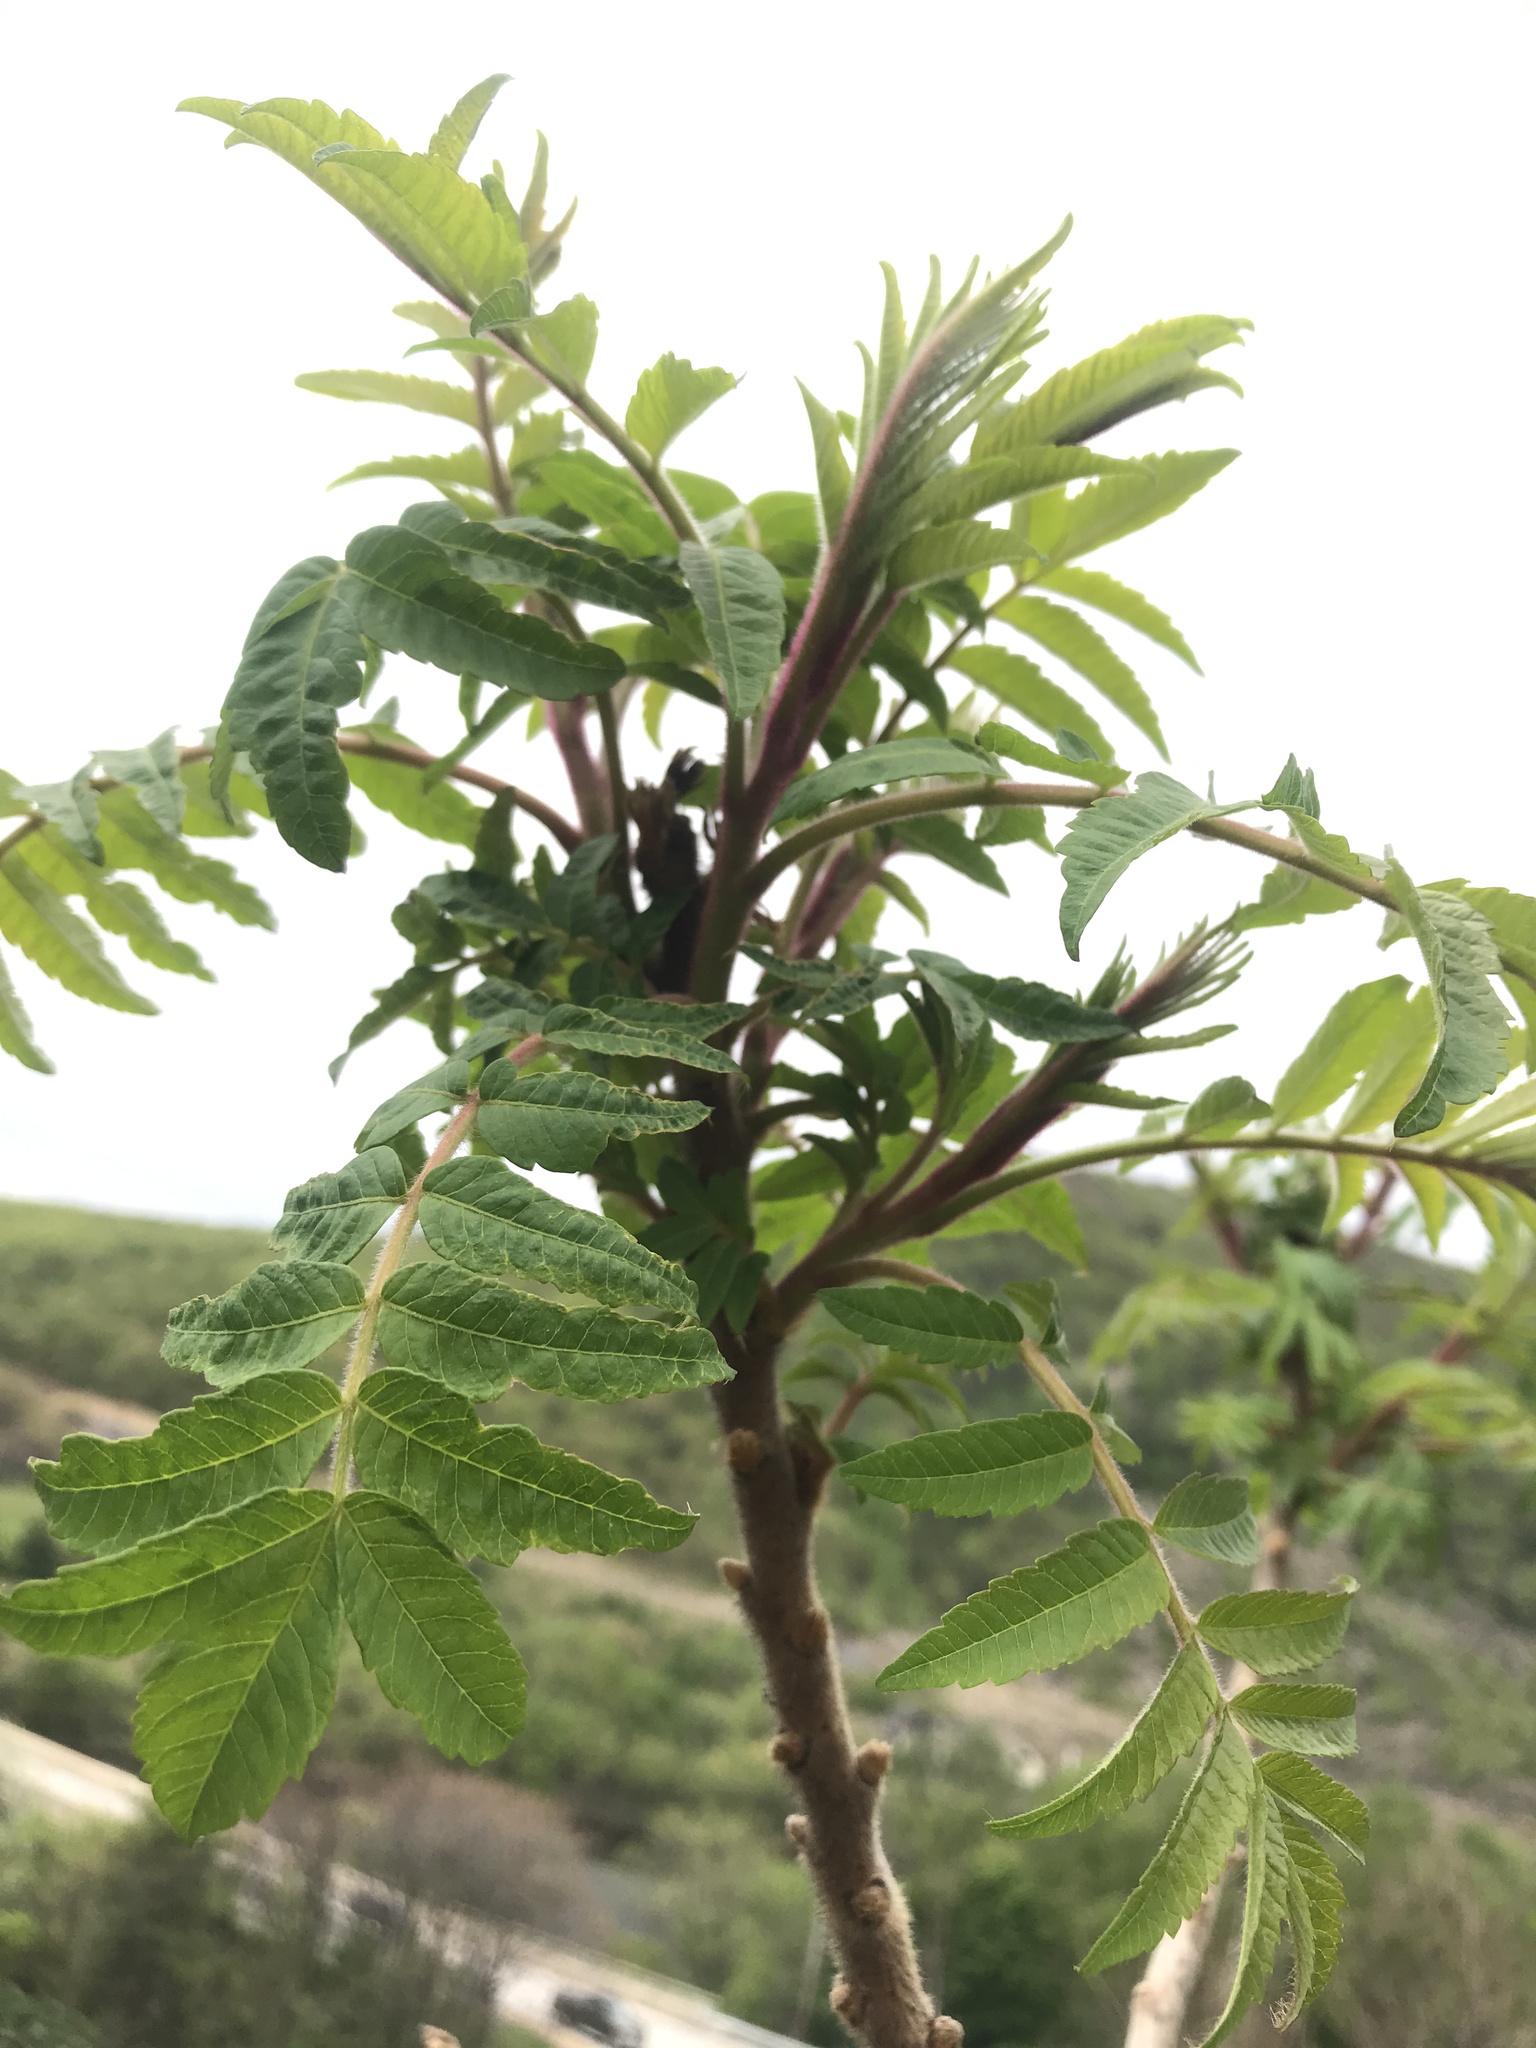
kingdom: Plantae
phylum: Tracheophyta
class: Magnoliopsida
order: Sapindales
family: Anacardiaceae
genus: Rhus
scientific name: Rhus typhina
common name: Staghorn sumac
